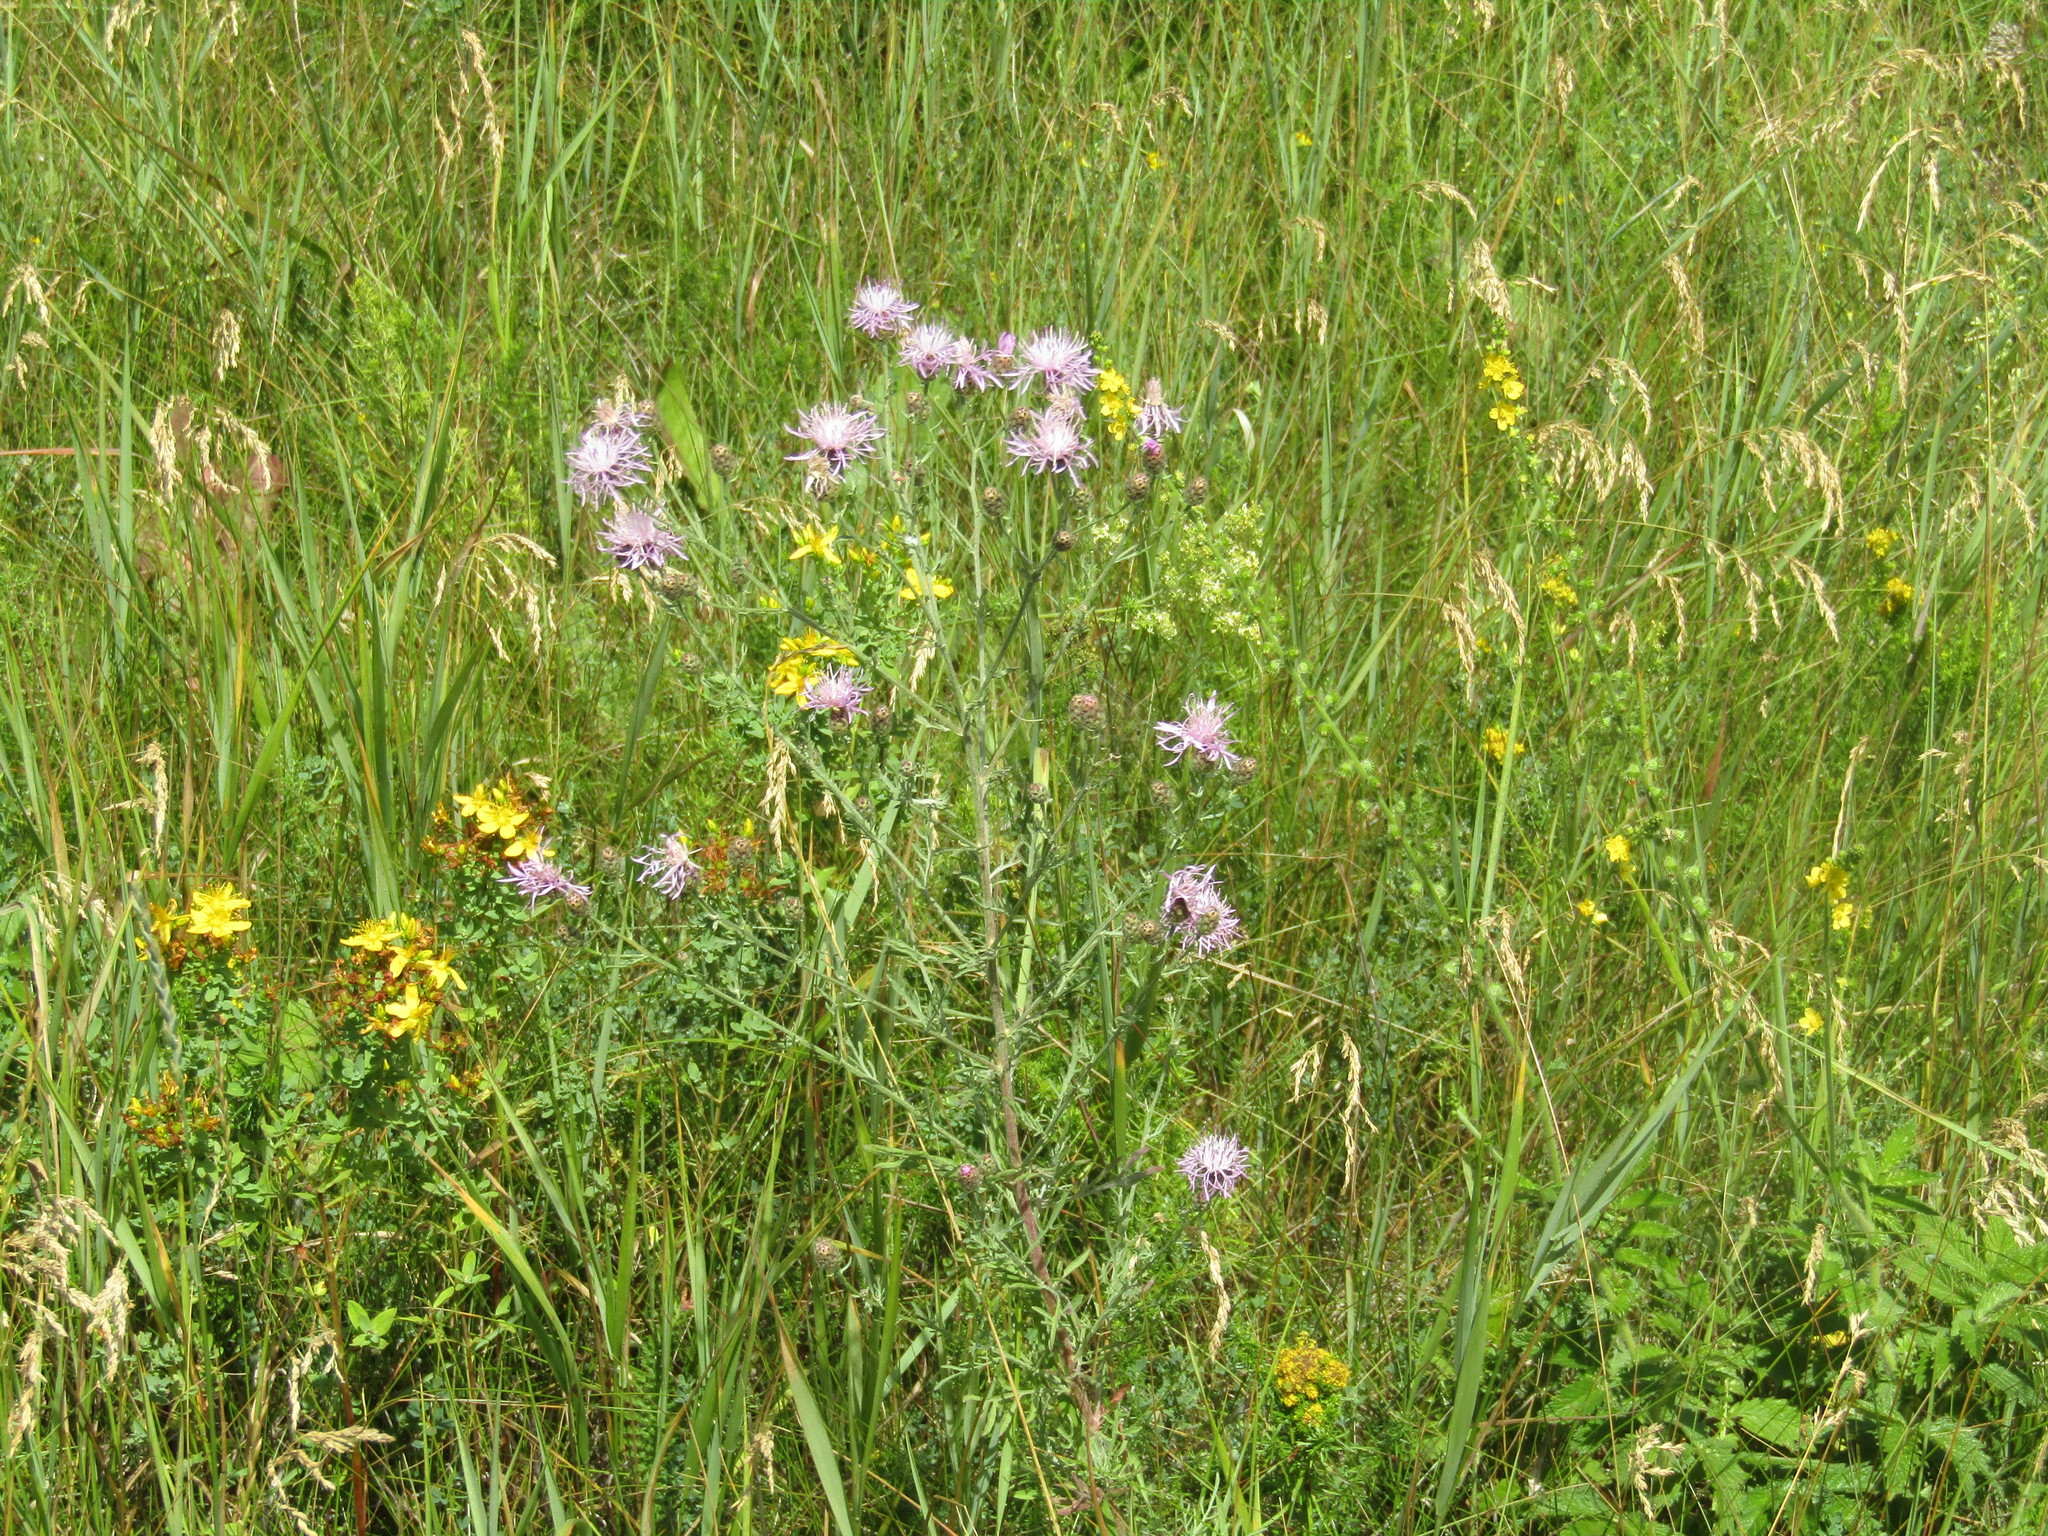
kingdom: Plantae
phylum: Tracheophyta
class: Magnoliopsida
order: Asterales
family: Asteraceae
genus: Centaurea
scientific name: Centaurea stoebe
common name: Spotted knapweed
